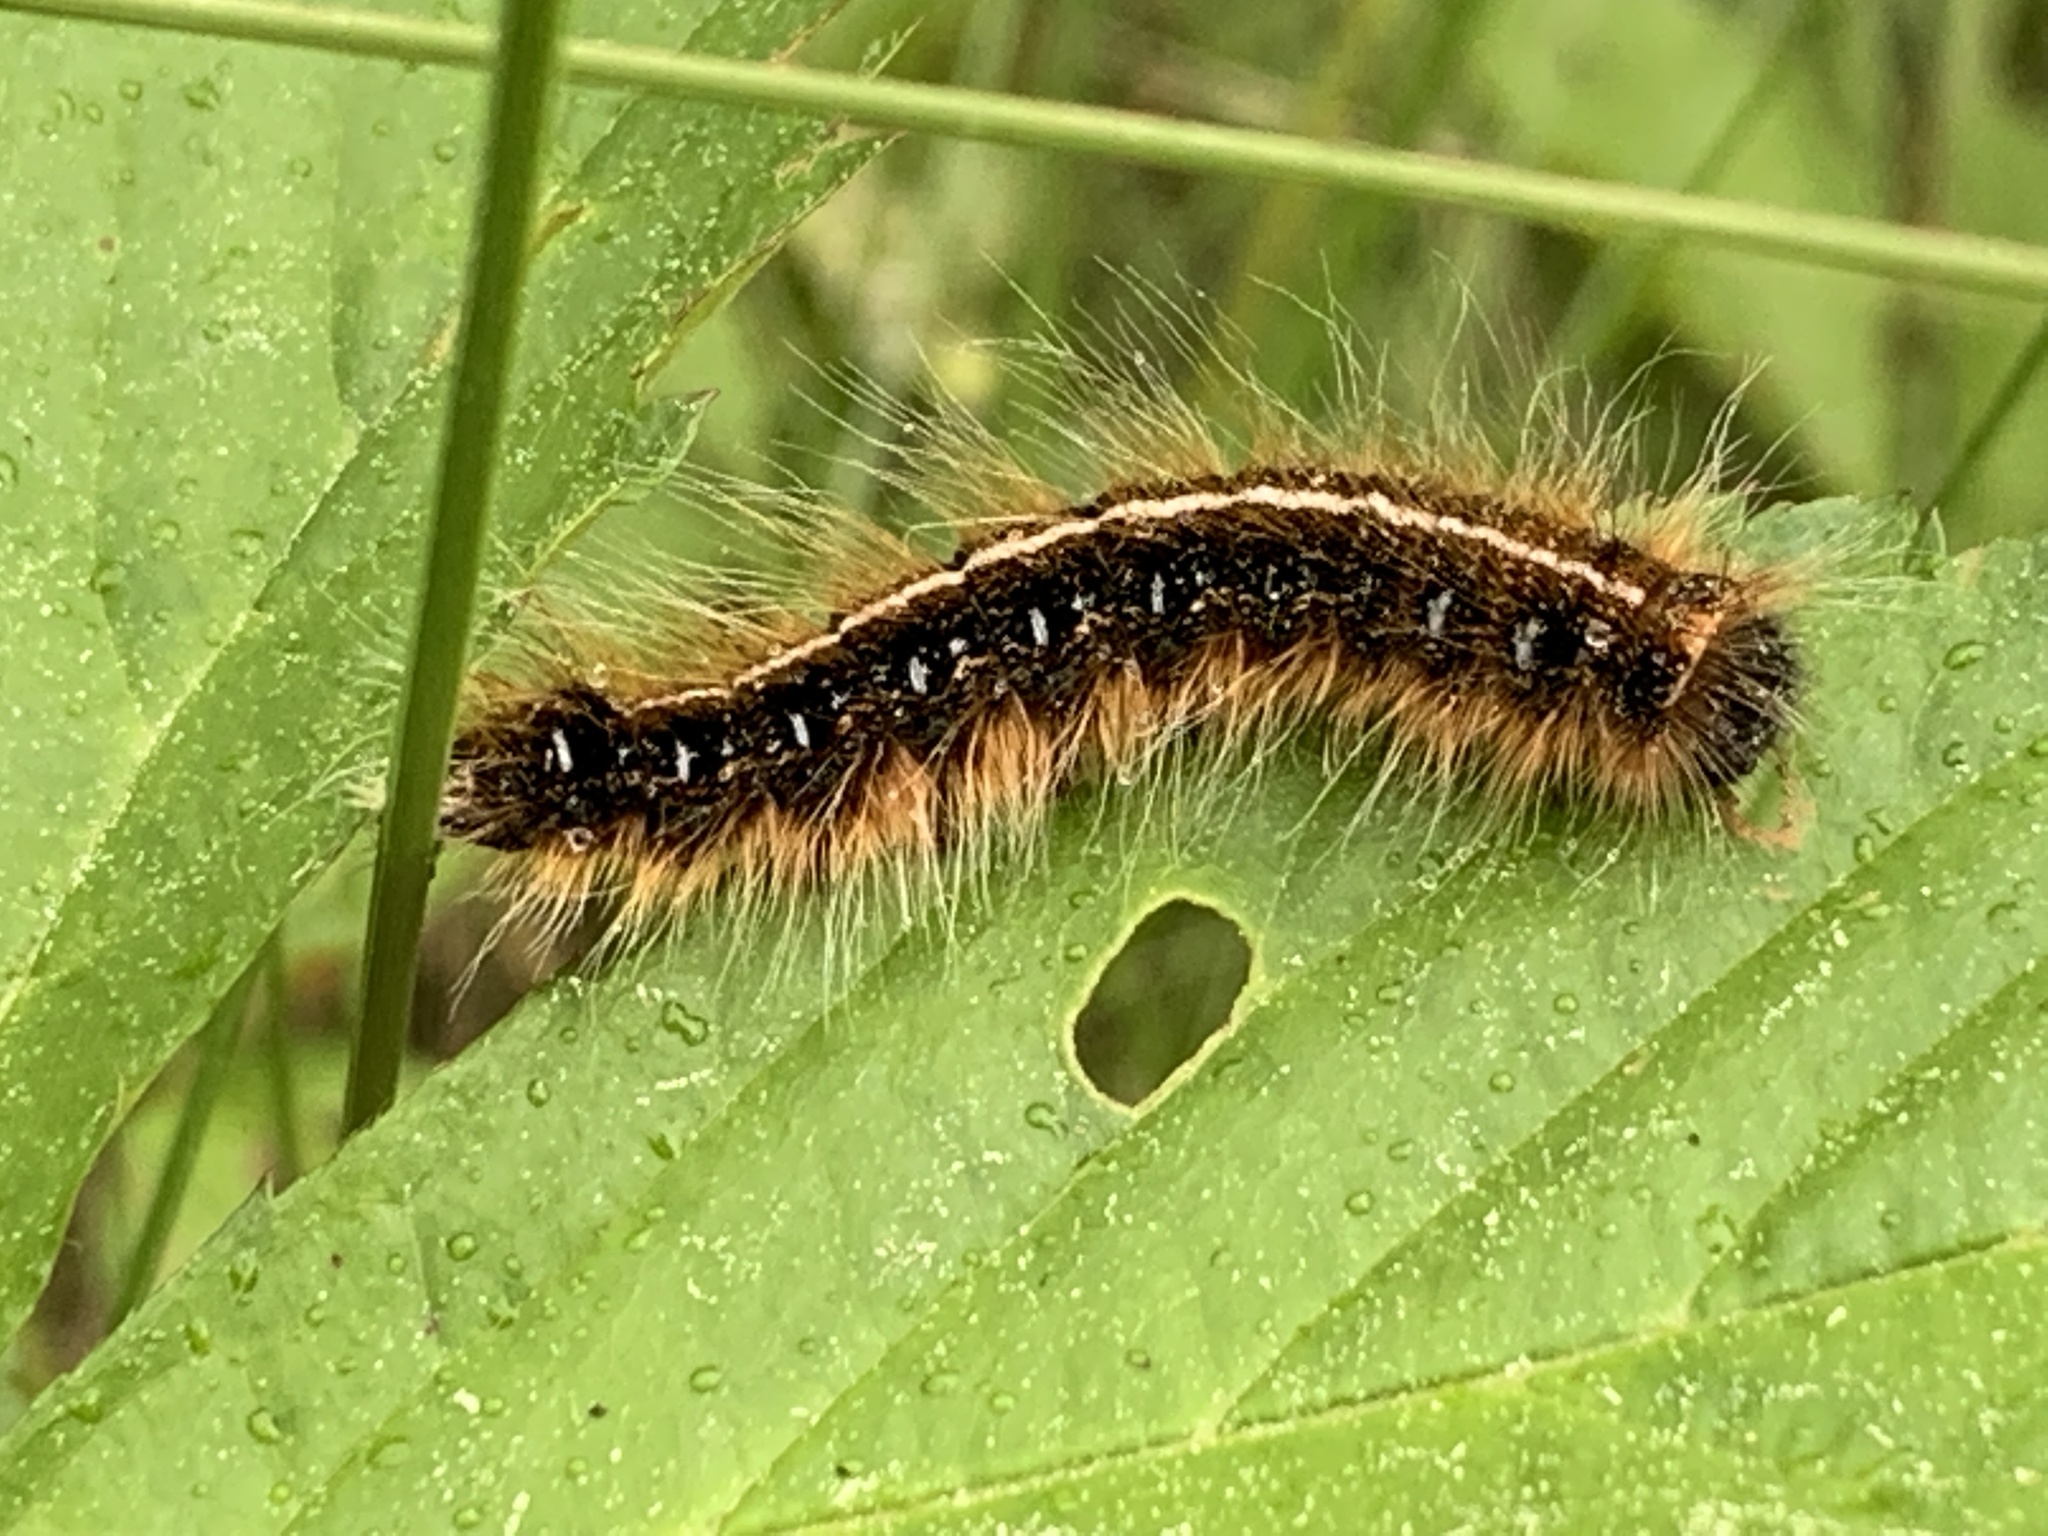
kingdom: Animalia
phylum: Arthropoda
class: Insecta
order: Lepidoptera
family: Lasiocampidae
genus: Malacosoma
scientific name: Malacosoma americana
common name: Eastern tent caterpillar moth
